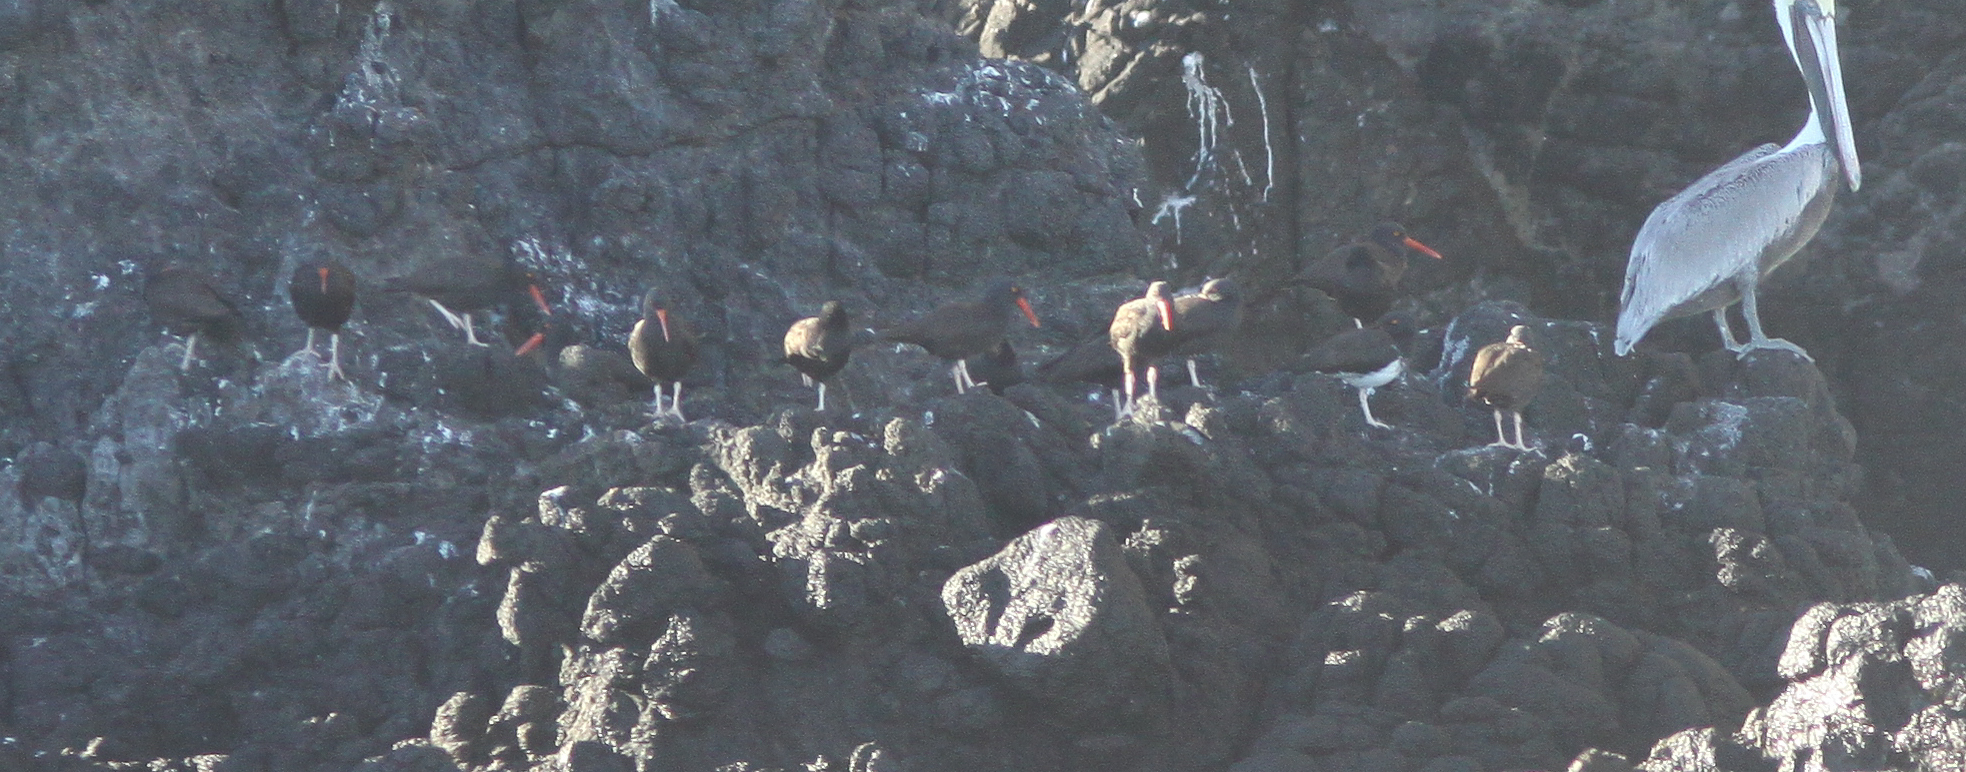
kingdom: Animalia
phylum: Chordata
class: Aves
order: Charadriiformes
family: Haematopodidae
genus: Haematopus
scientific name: Haematopus bachmani
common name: Black oystercatcher
